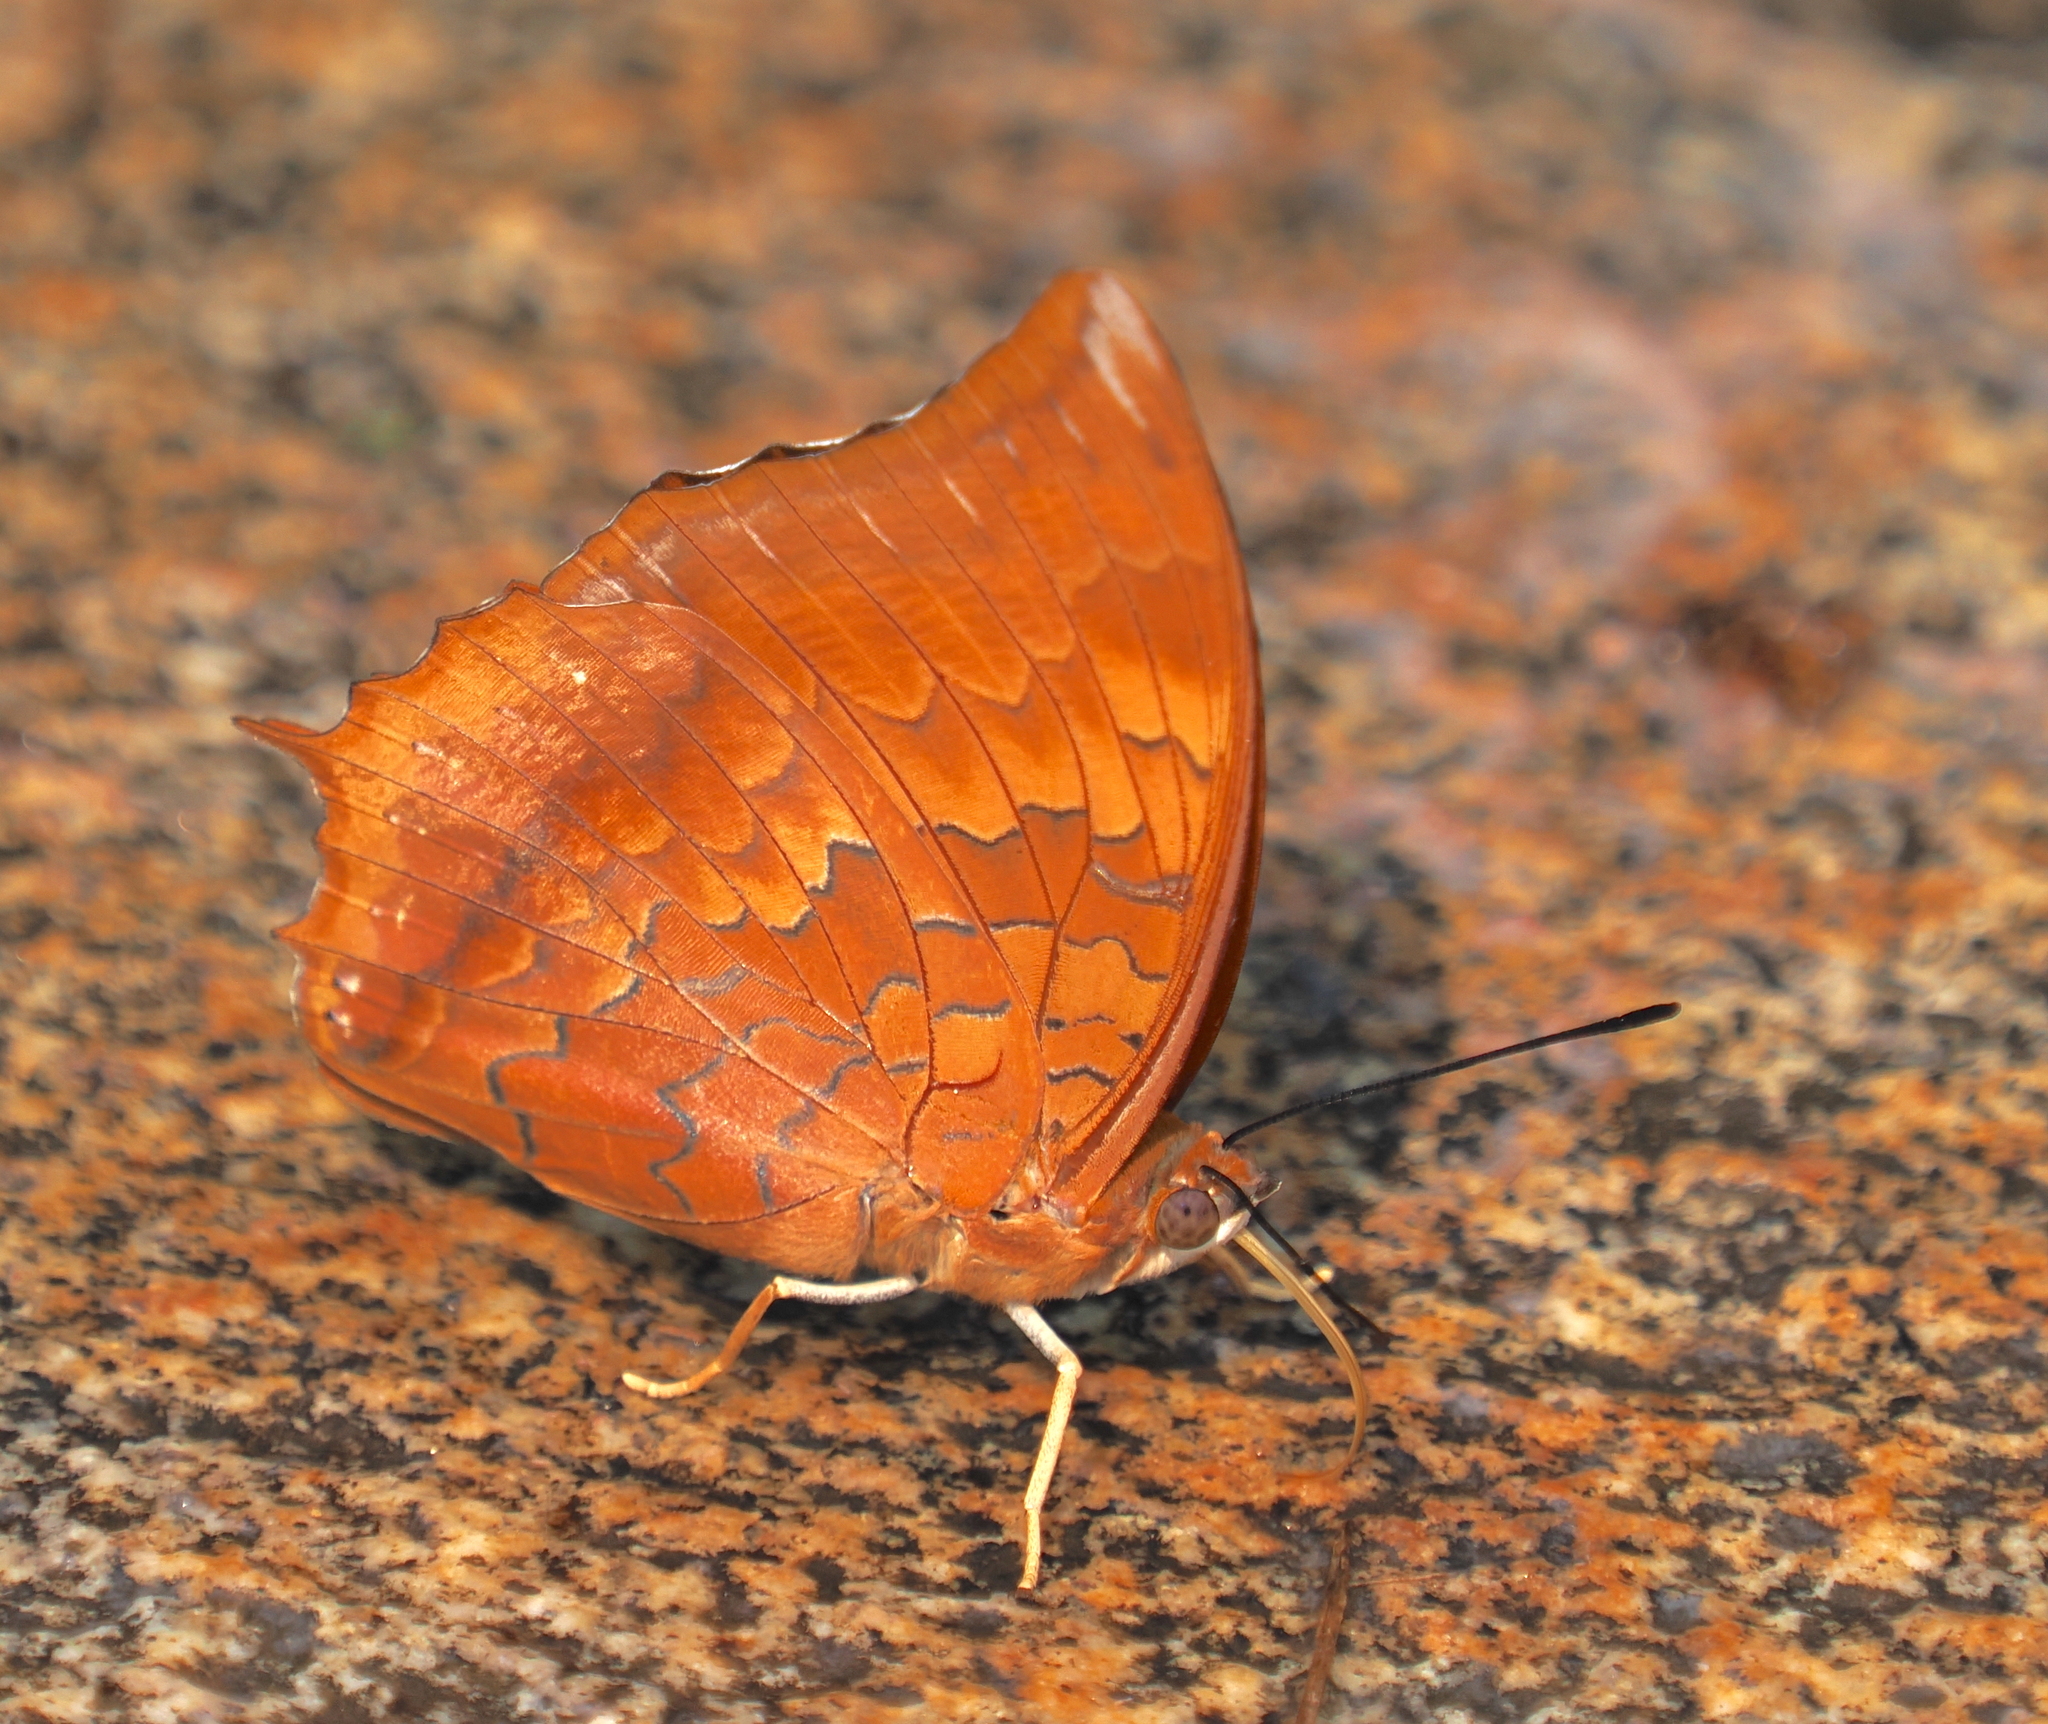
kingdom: Animalia
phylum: Arthropoda
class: Insecta
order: Lepidoptera
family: Nymphalidae
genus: Charaxes
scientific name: Charaxes bernardus
